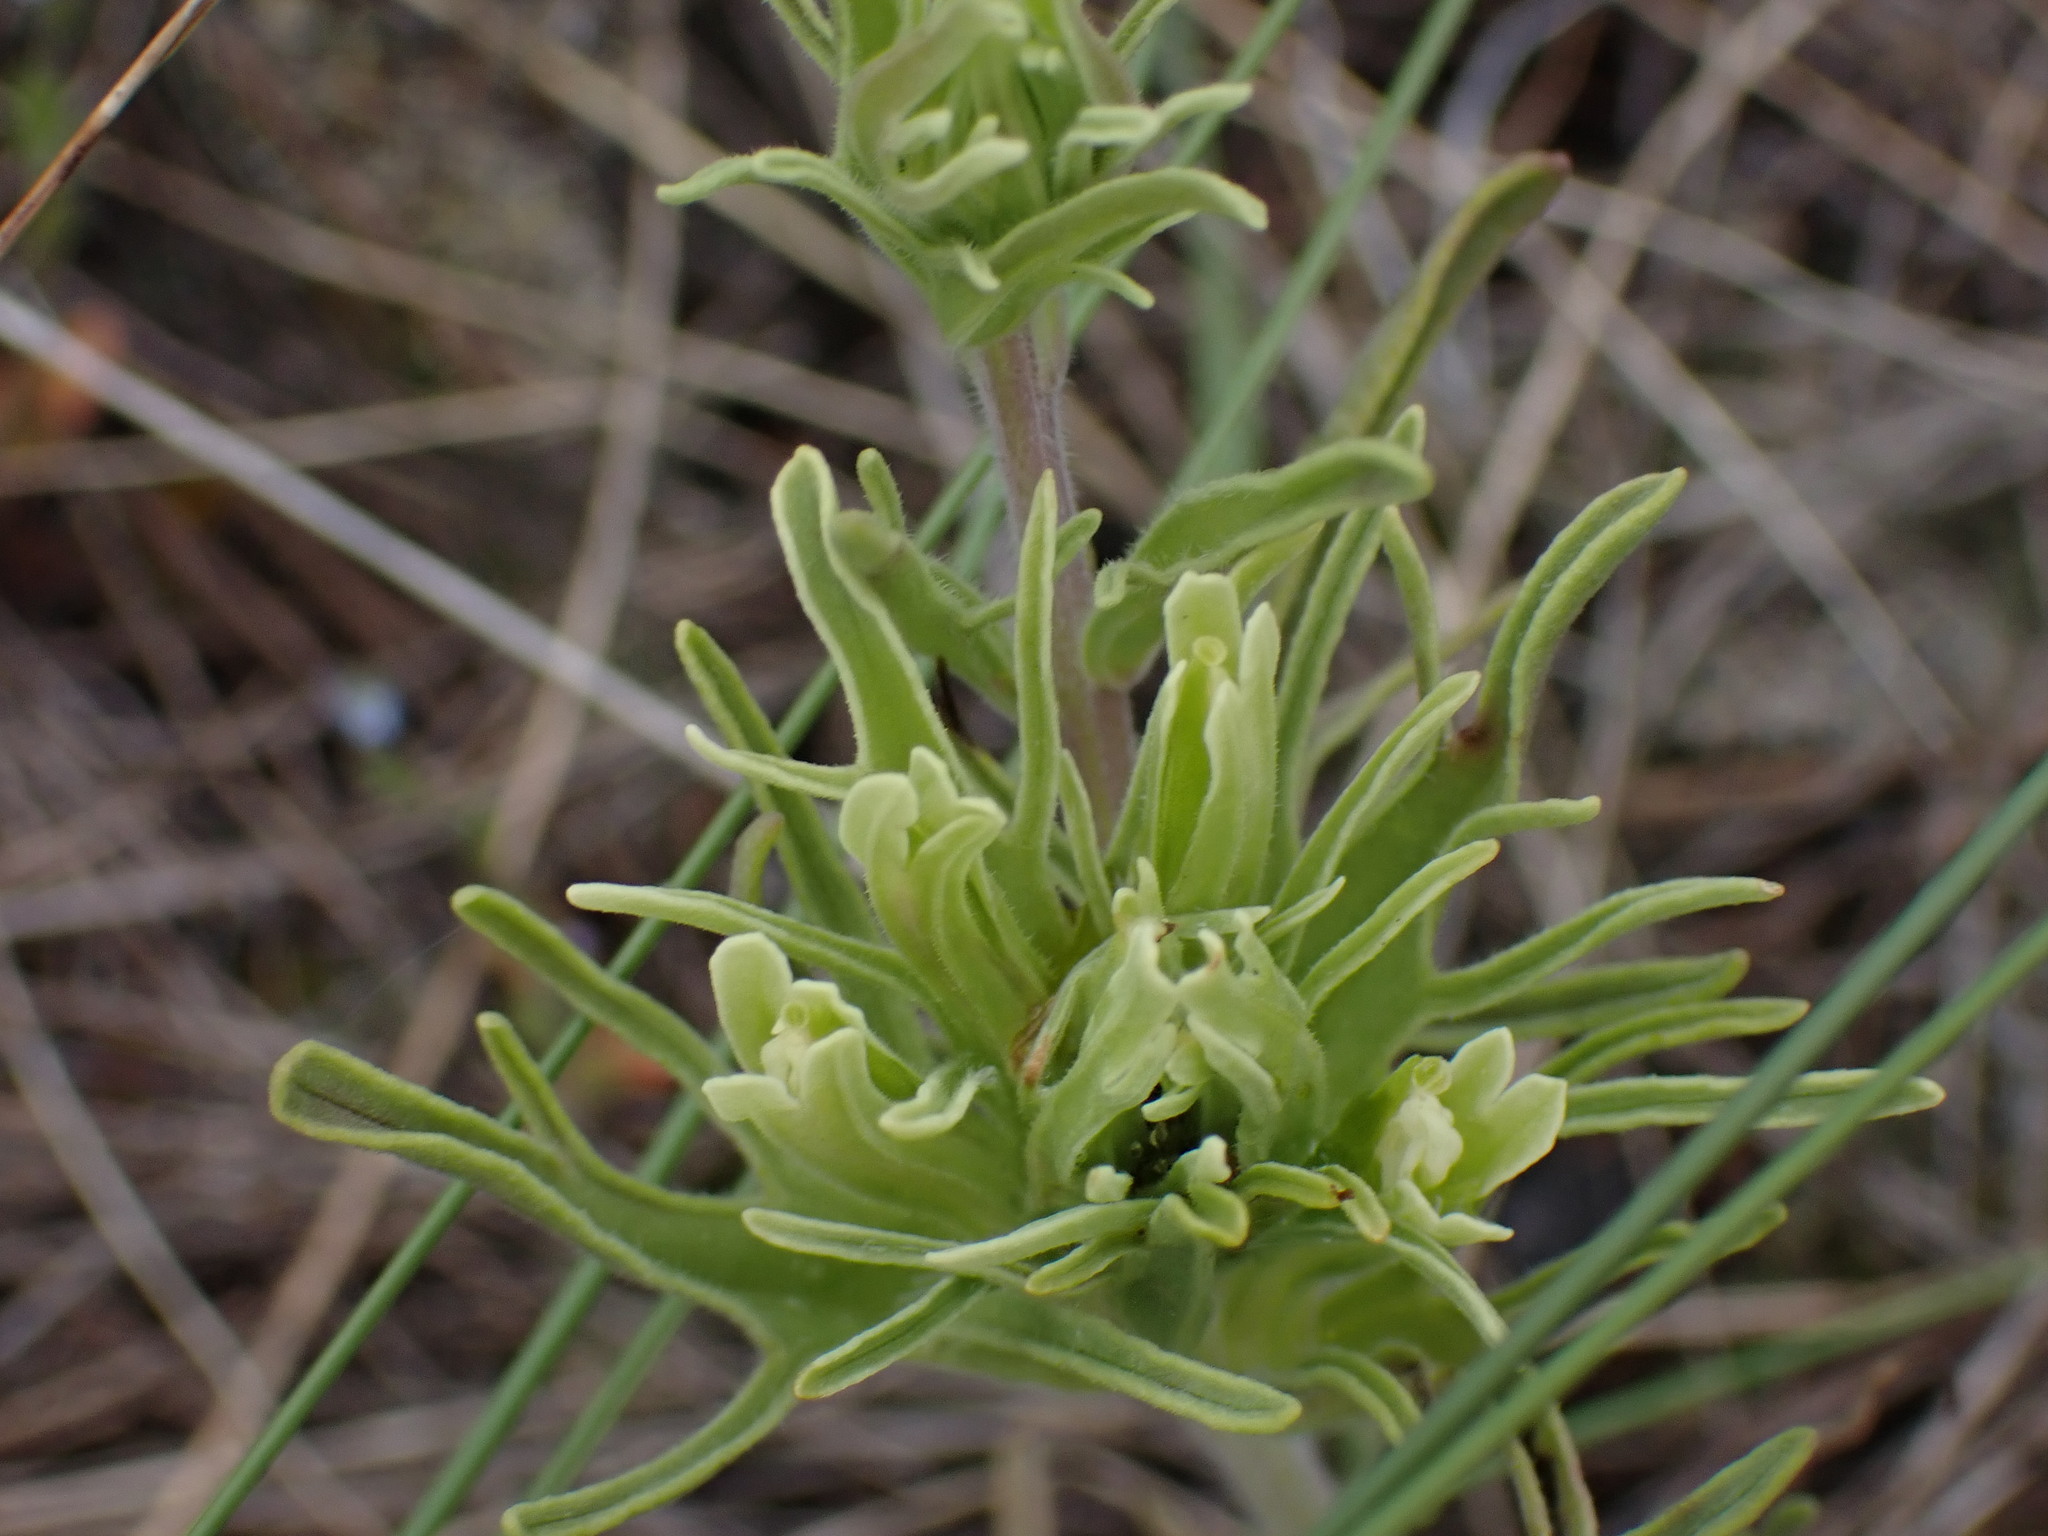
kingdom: Plantae
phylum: Tracheophyta
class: Magnoliopsida
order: Lamiales
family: Orobanchaceae
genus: Castilleja
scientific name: Castilleja thompsonii
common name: Thompson's paintbrush
